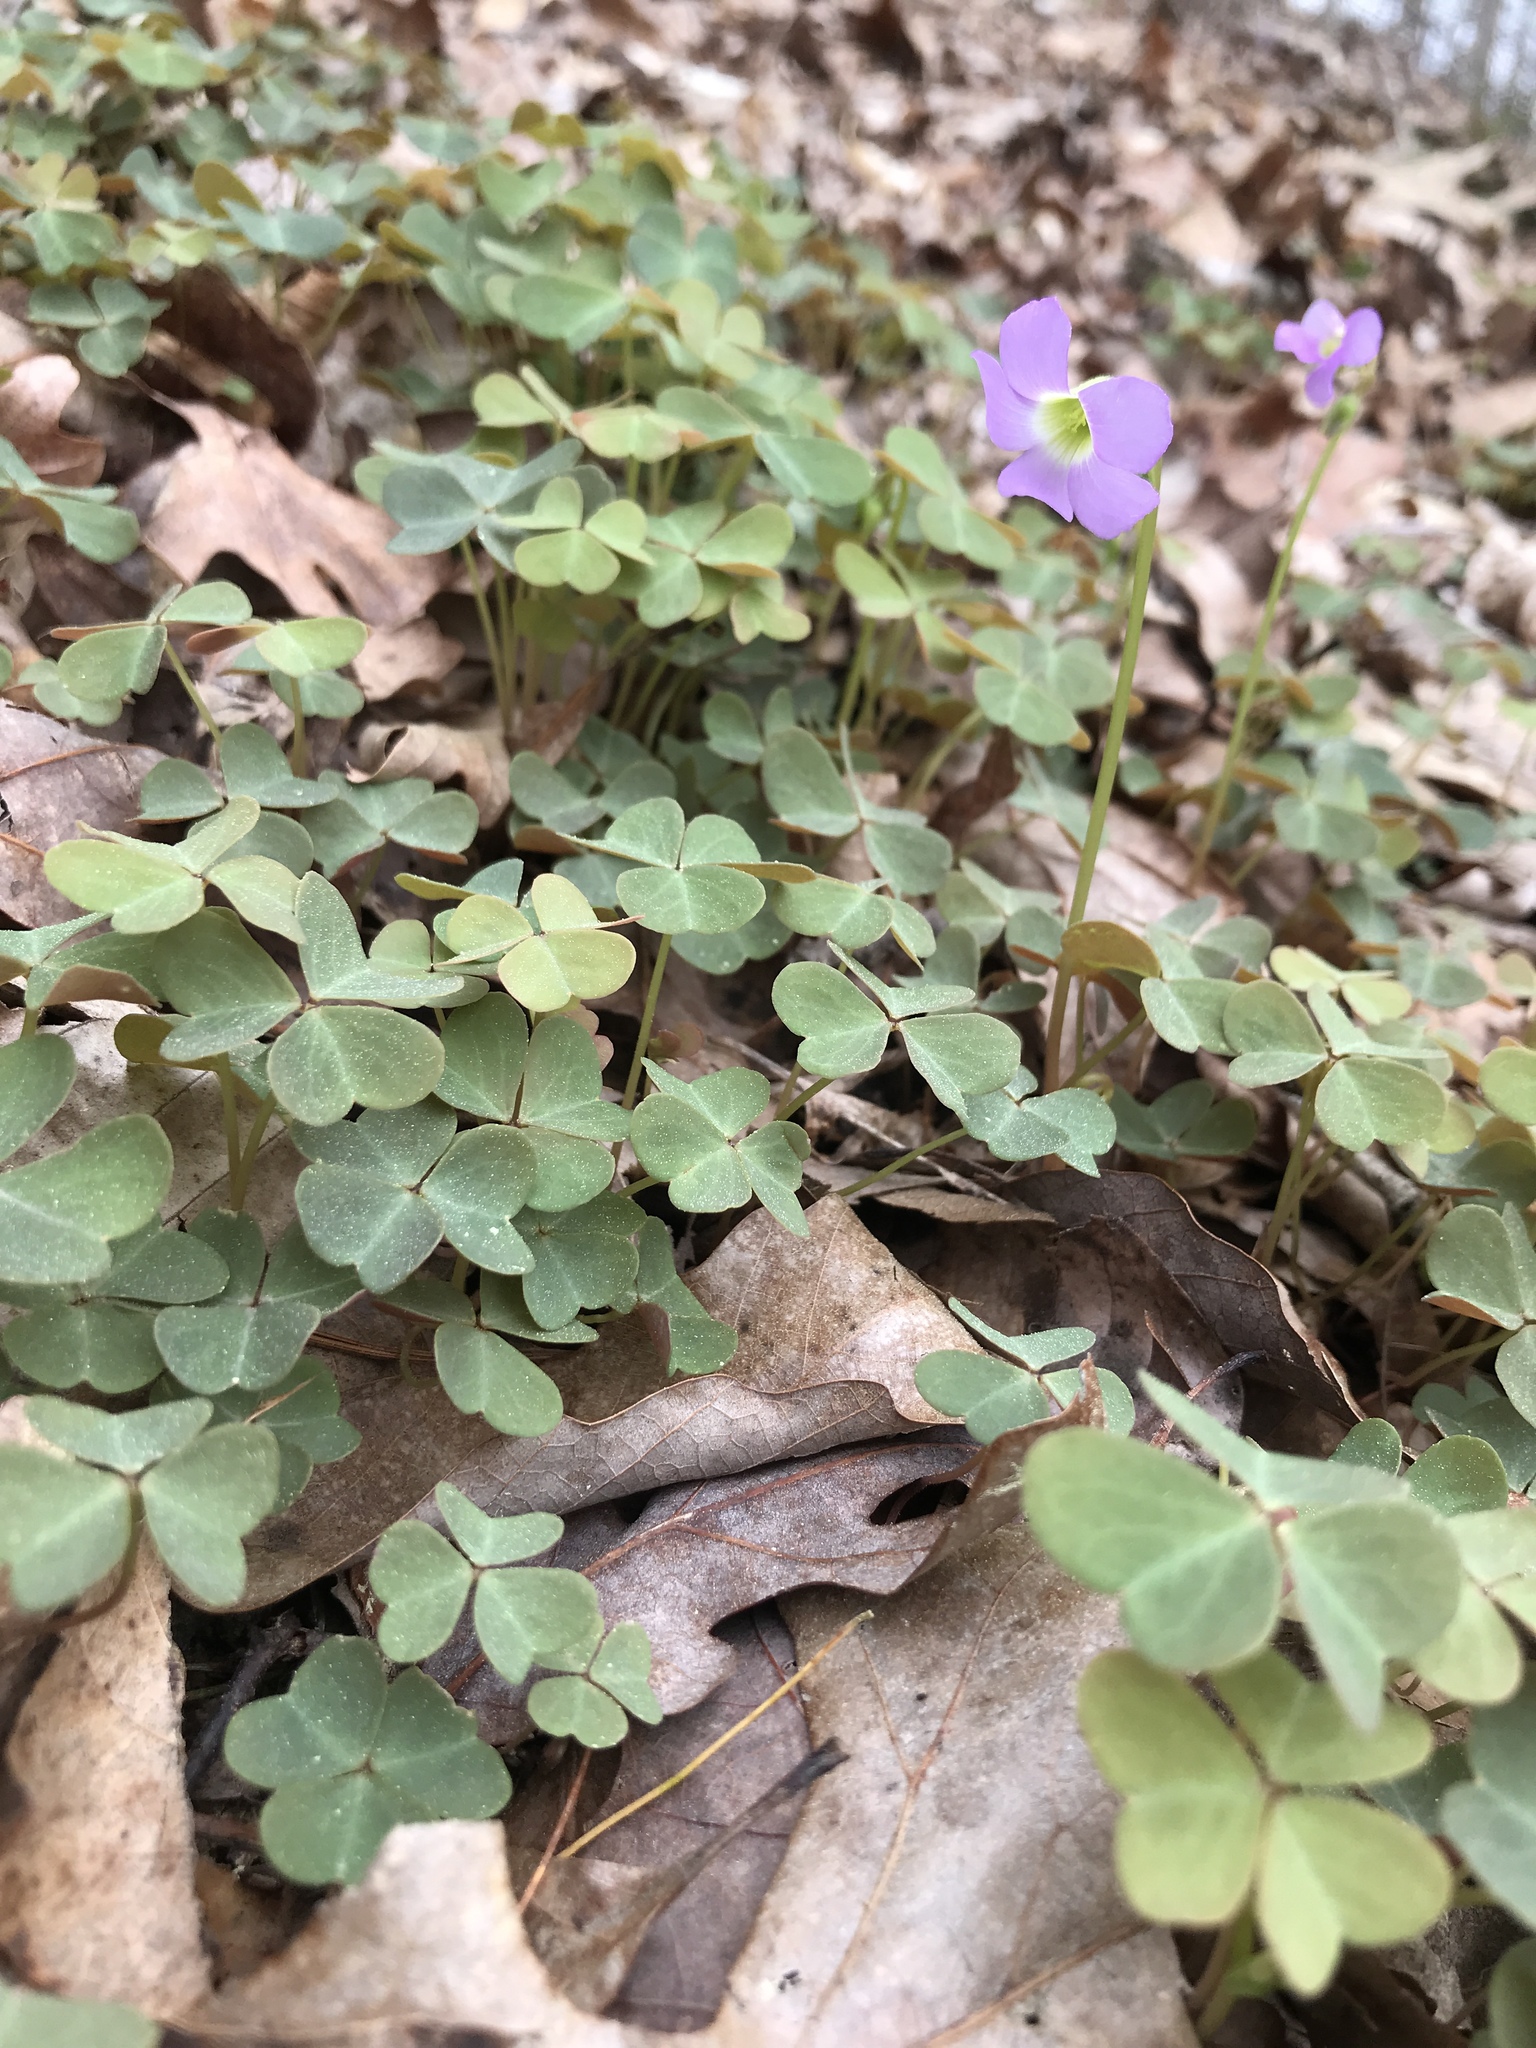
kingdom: Plantae
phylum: Tracheophyta
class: Magnoliopsida
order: Oxalidales
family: Oxalidaceae
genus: Oxalis
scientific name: Oxalis violacea
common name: Violet wood-sorrel
